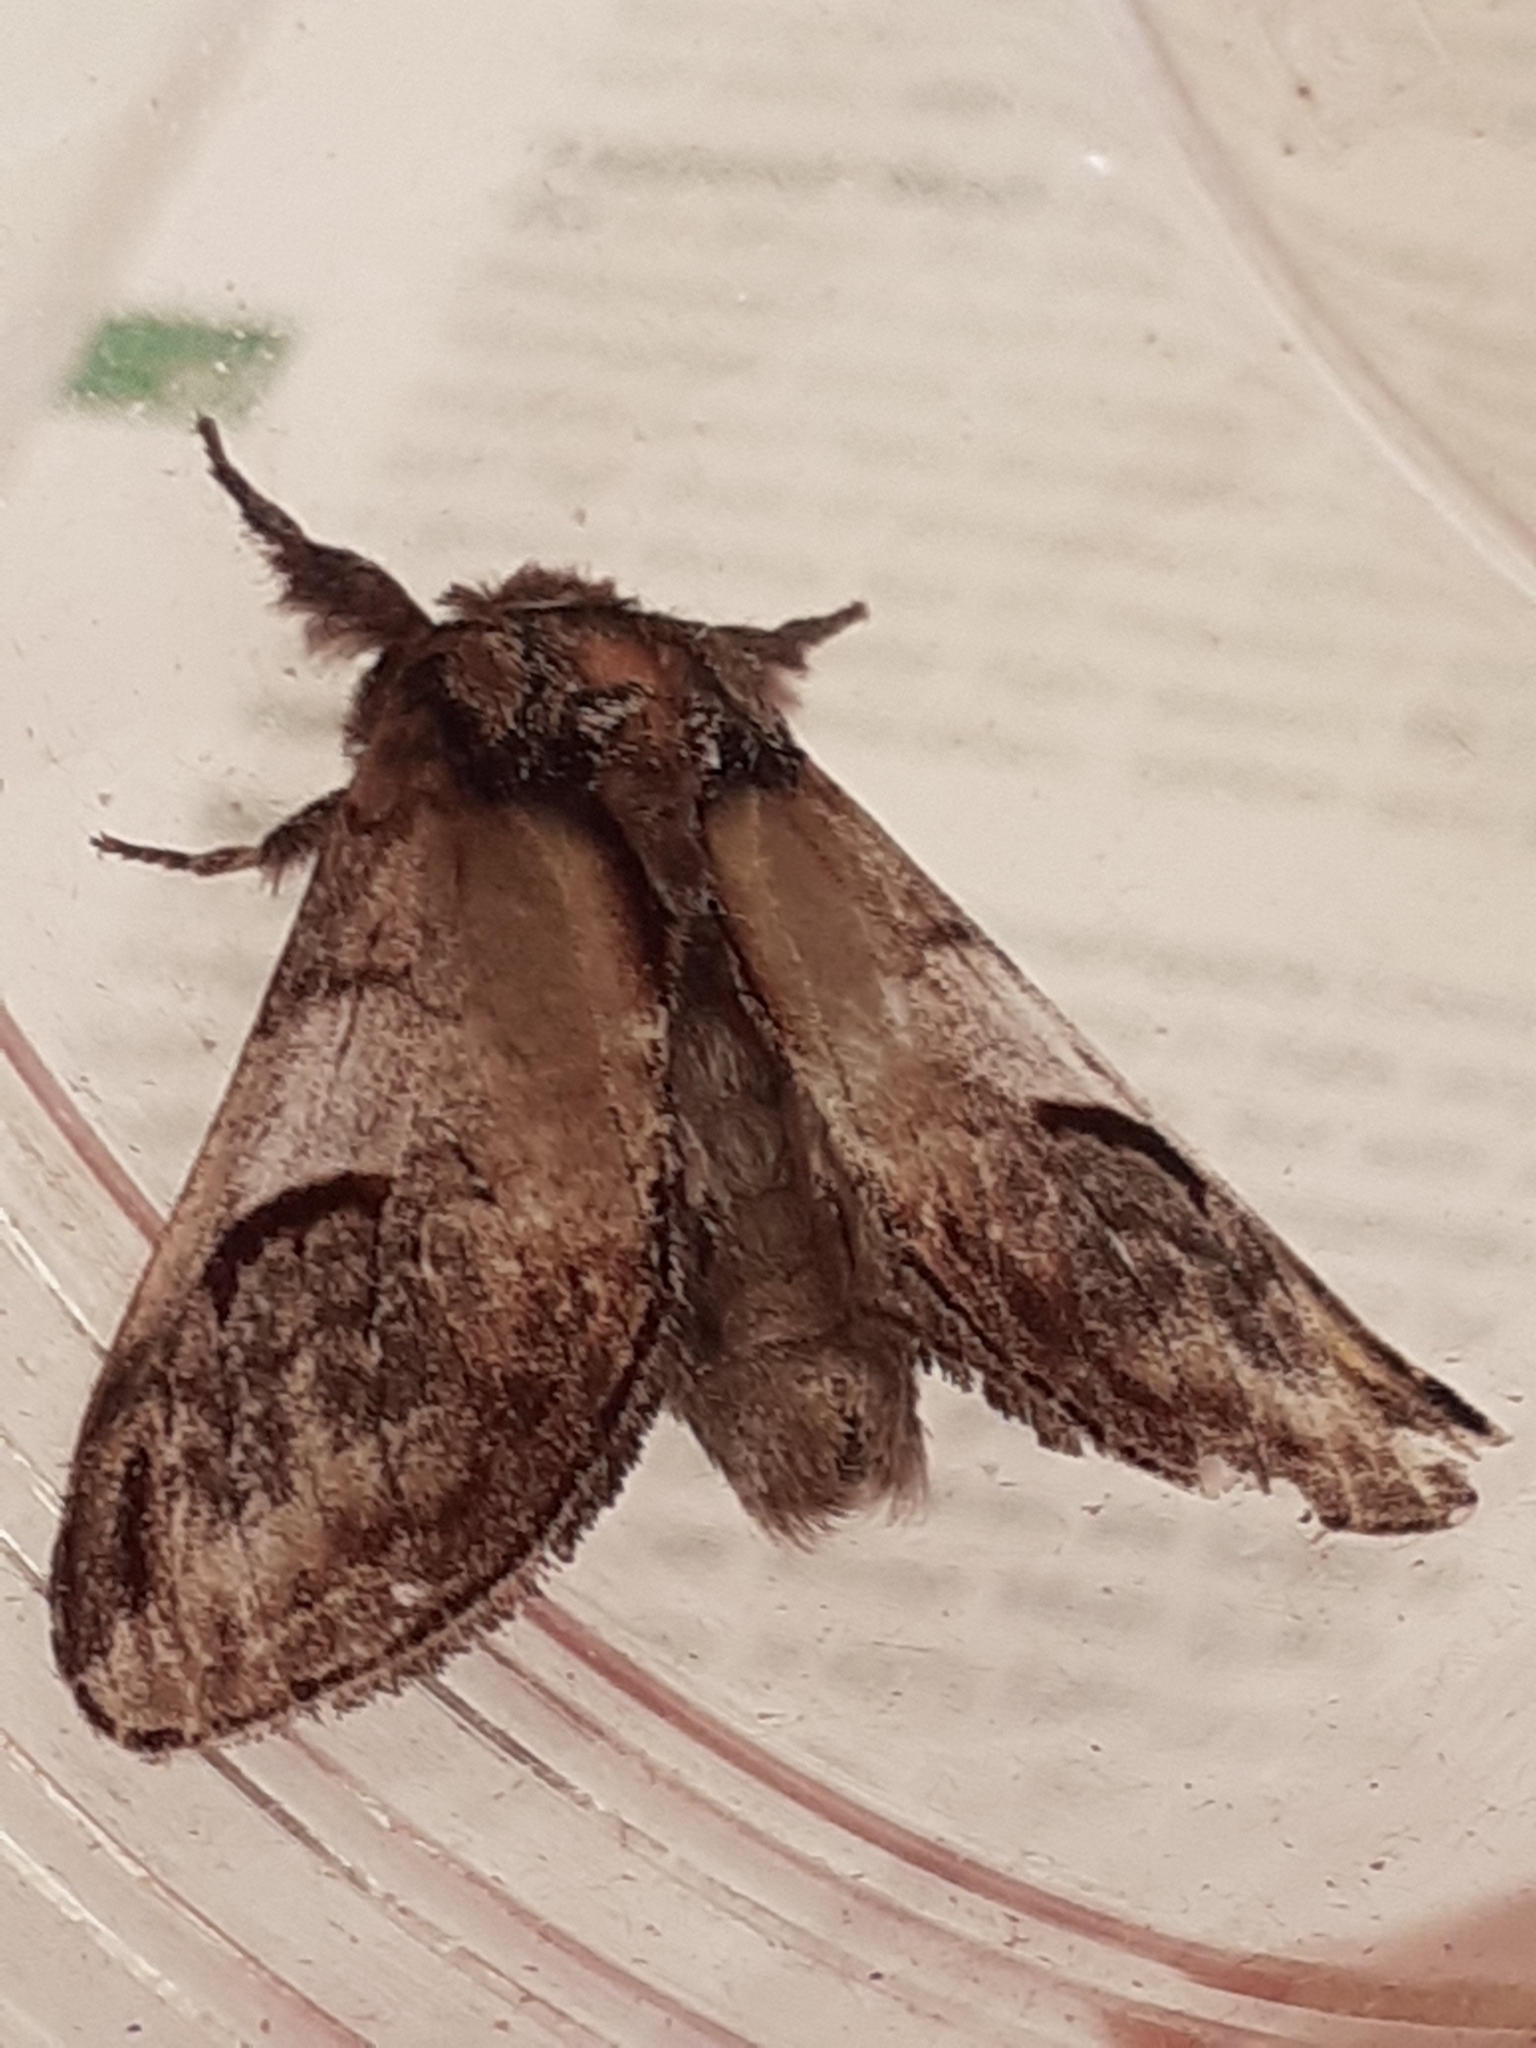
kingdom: Animalia
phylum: Arthropoda
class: Insecta
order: Lepidoptera
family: Notodontidae
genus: Notodonta
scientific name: Notodonta ziczac
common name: Pebble prominent
